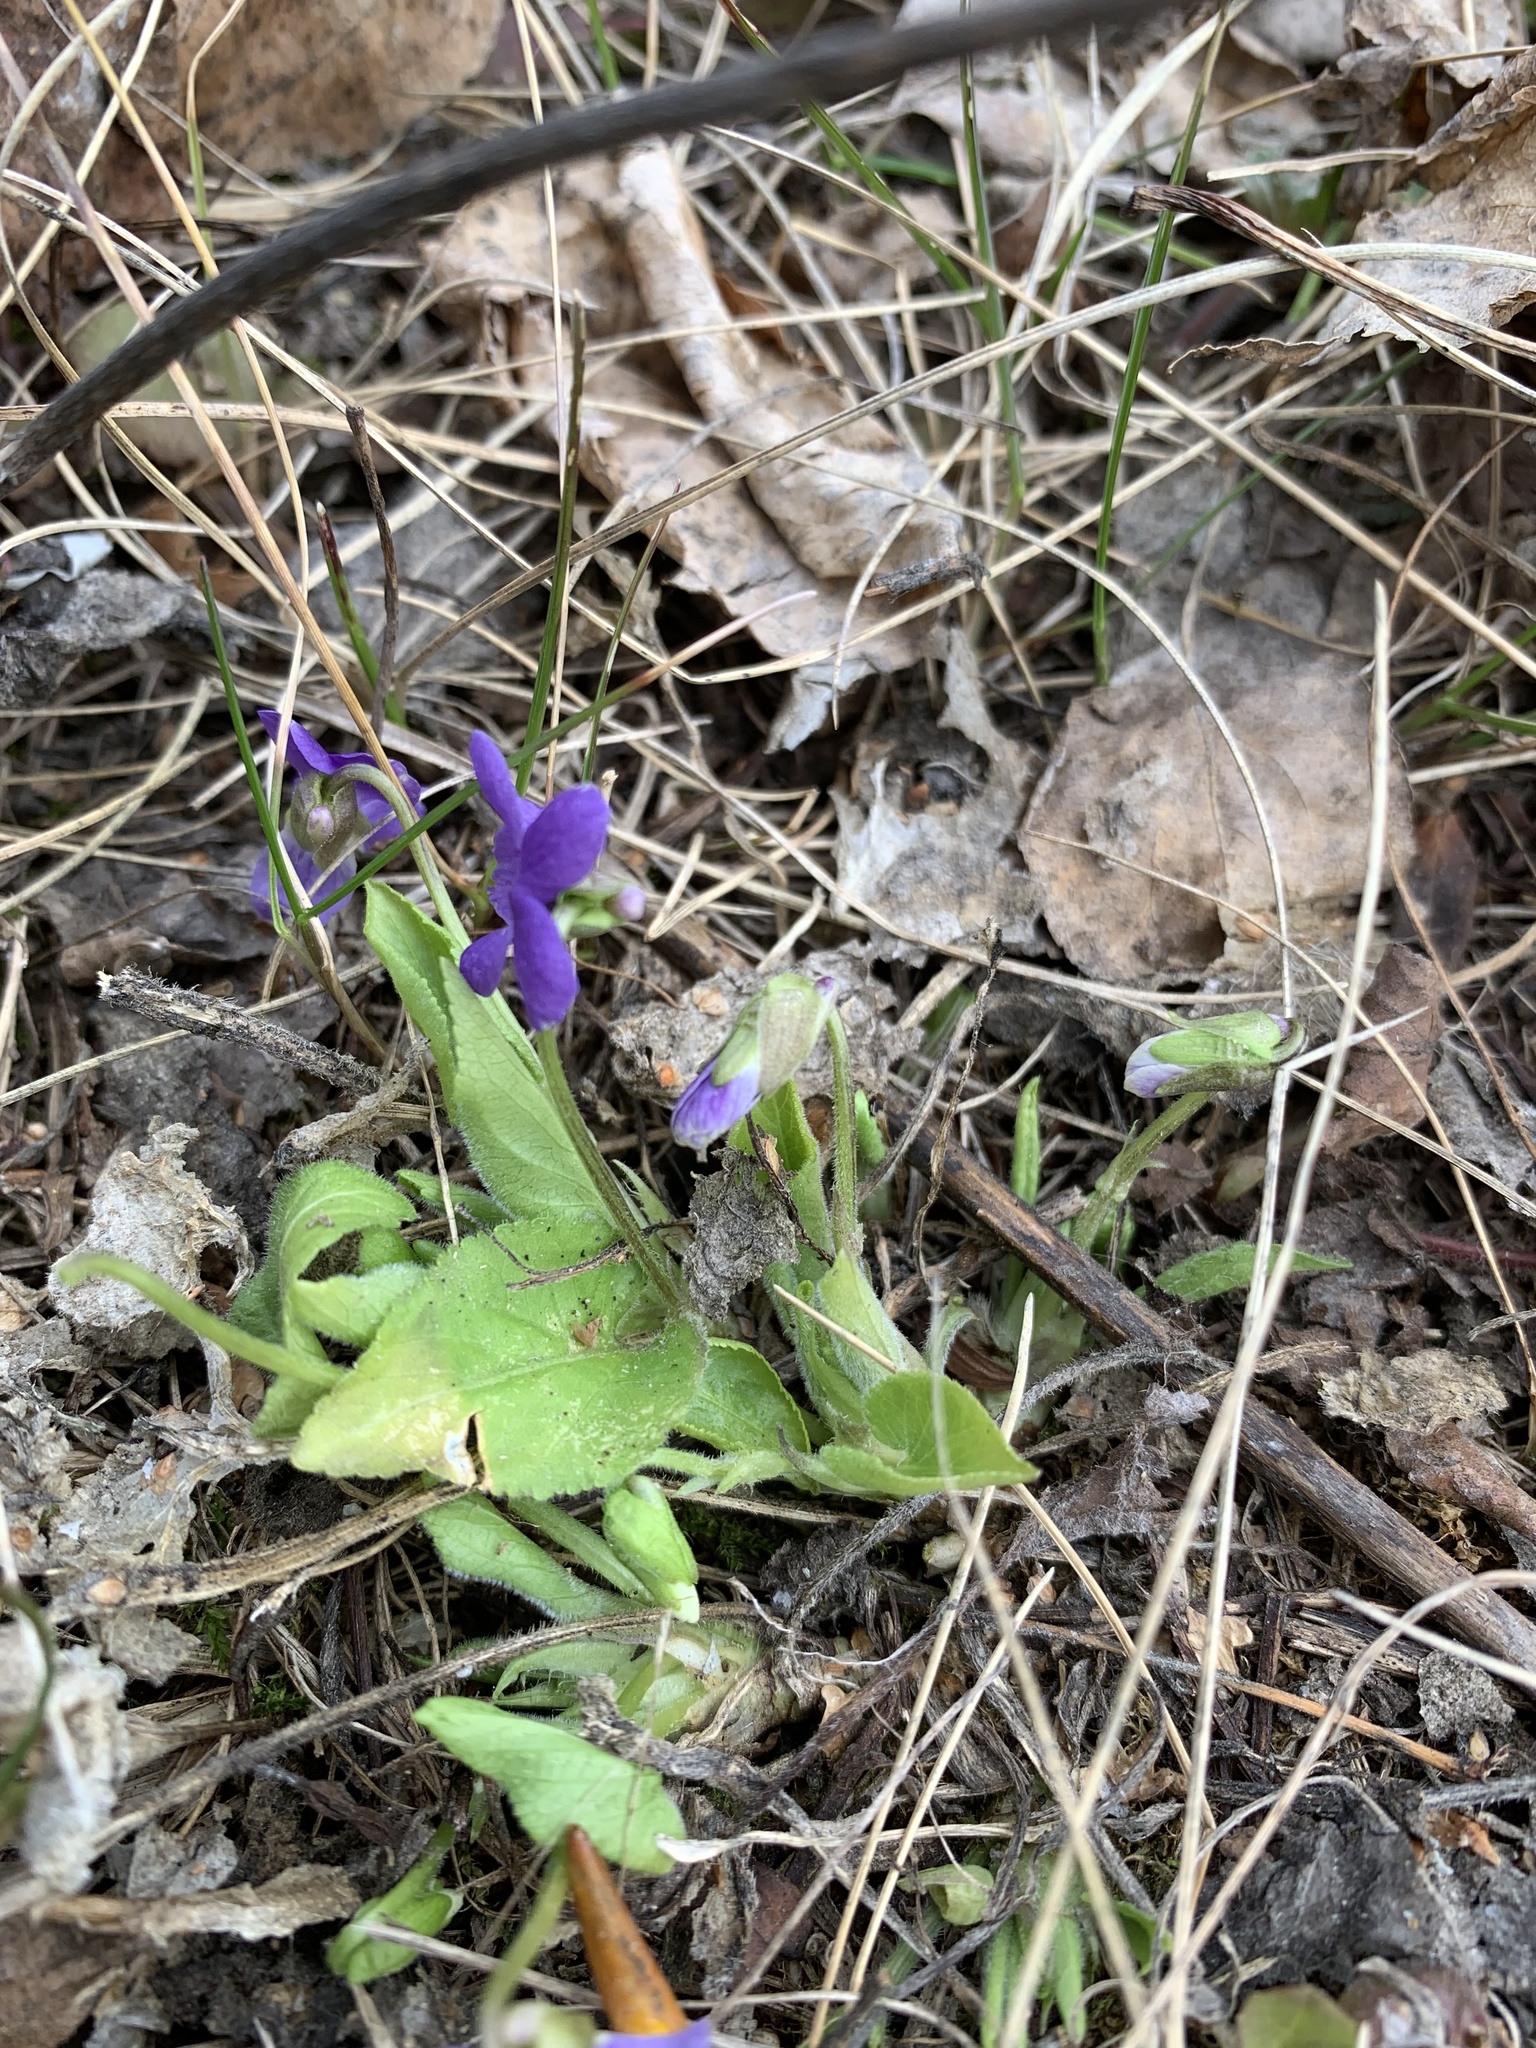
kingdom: Plantae
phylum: Tracheophyta
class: Magnoliopsida
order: Malpighiales
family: Violaceae
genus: Viola
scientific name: Viola hirta
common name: Hairy violet
